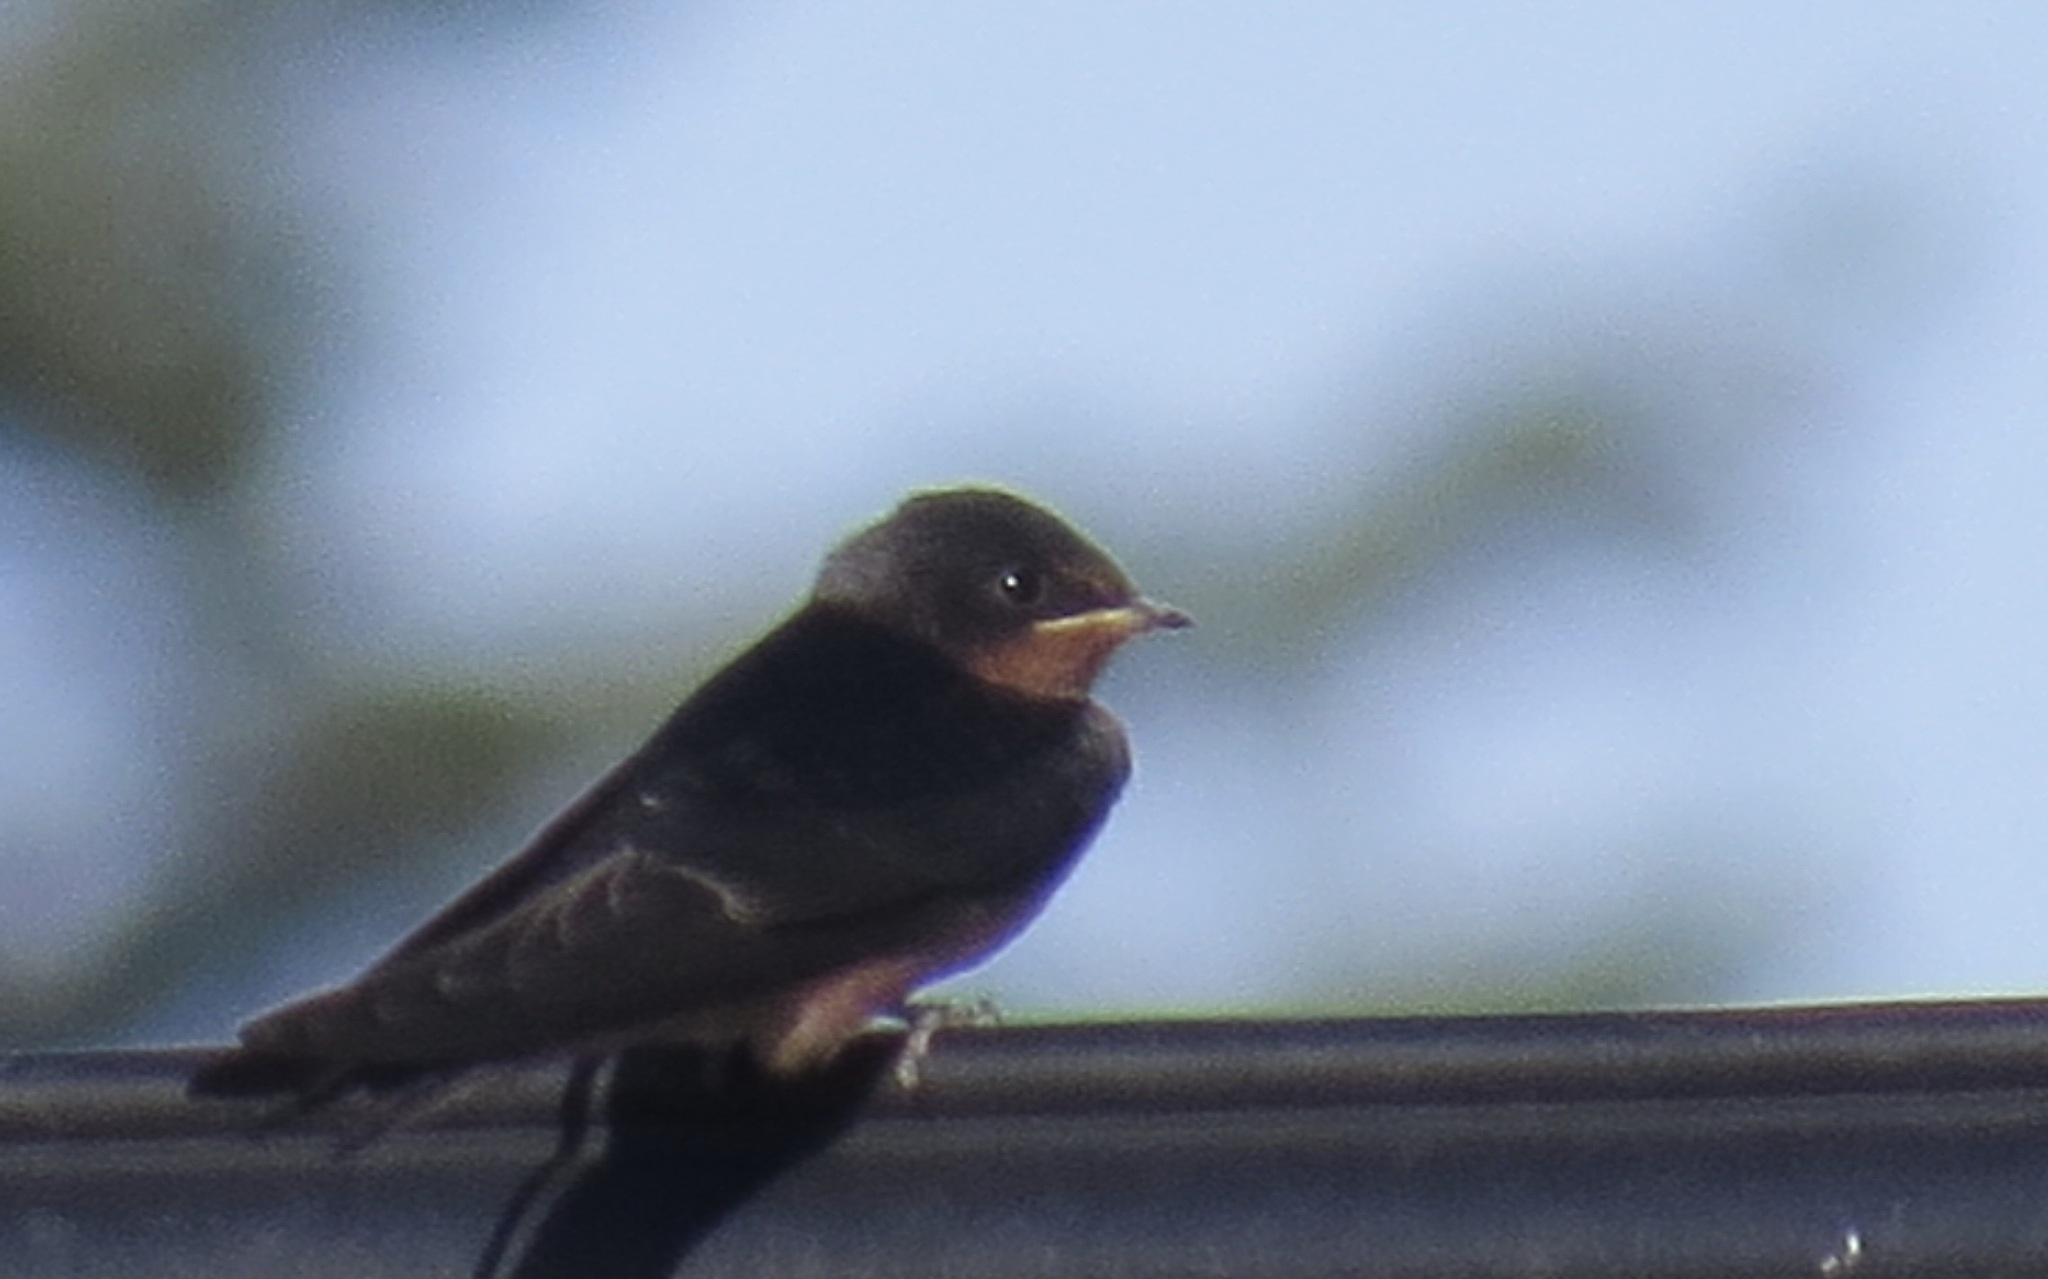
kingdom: Animalia
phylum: Chordata
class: Aves
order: Passeriformes
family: Hirundinidae
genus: Hirundo
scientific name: Hirundo rustica
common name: Barn swallow
